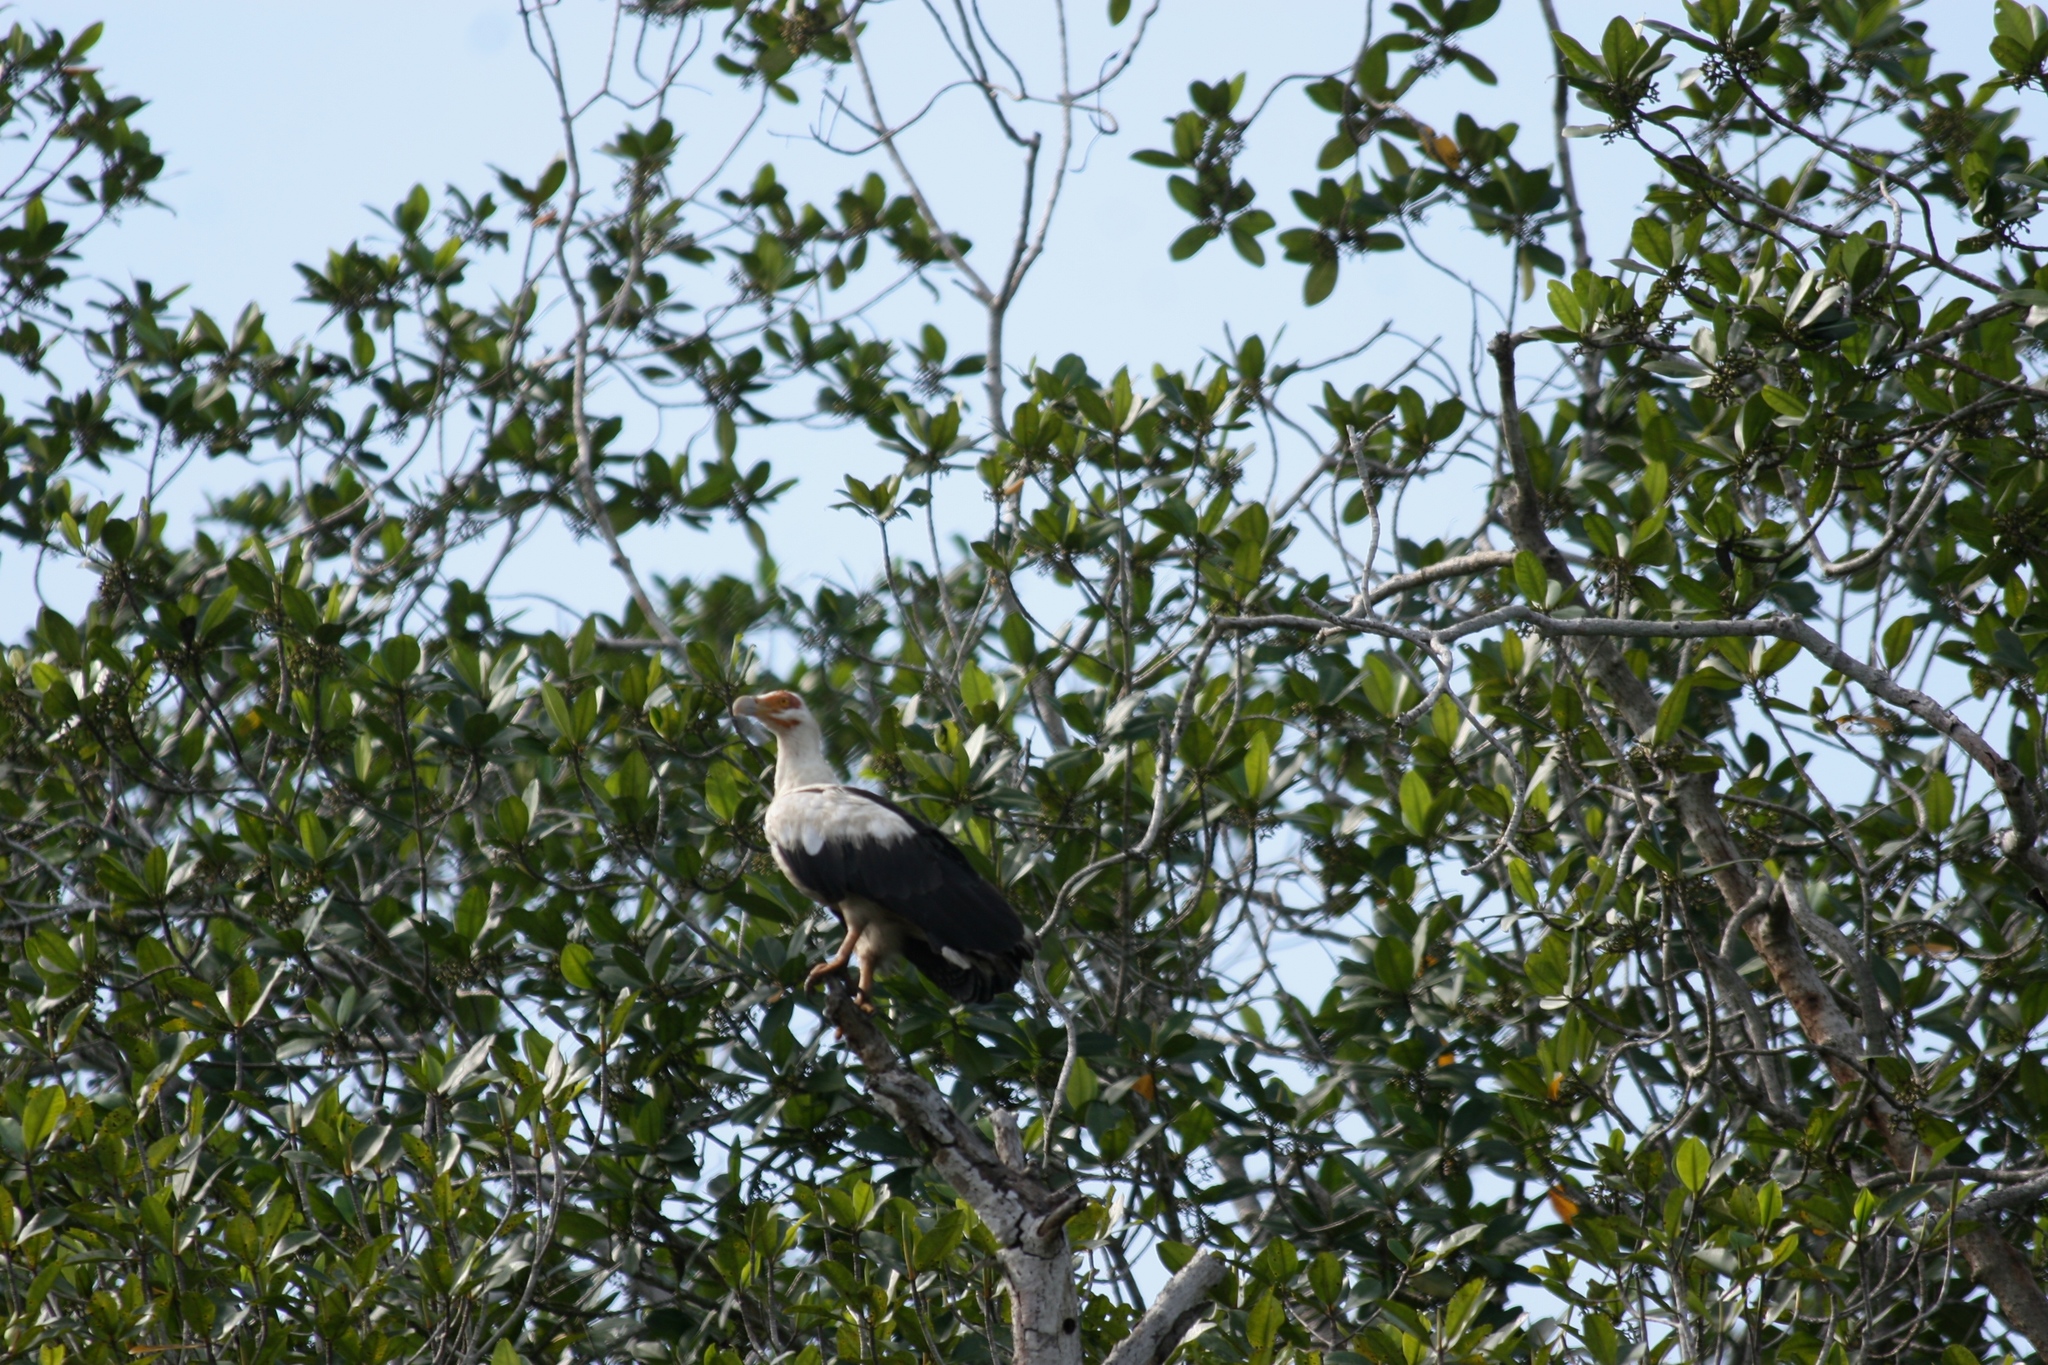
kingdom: Animalia
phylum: Chordata
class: Aves
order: Accipitriformes
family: Accipitridae
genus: Gypohierax
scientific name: Gypohierax angolensis
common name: Palm-nut vulture
